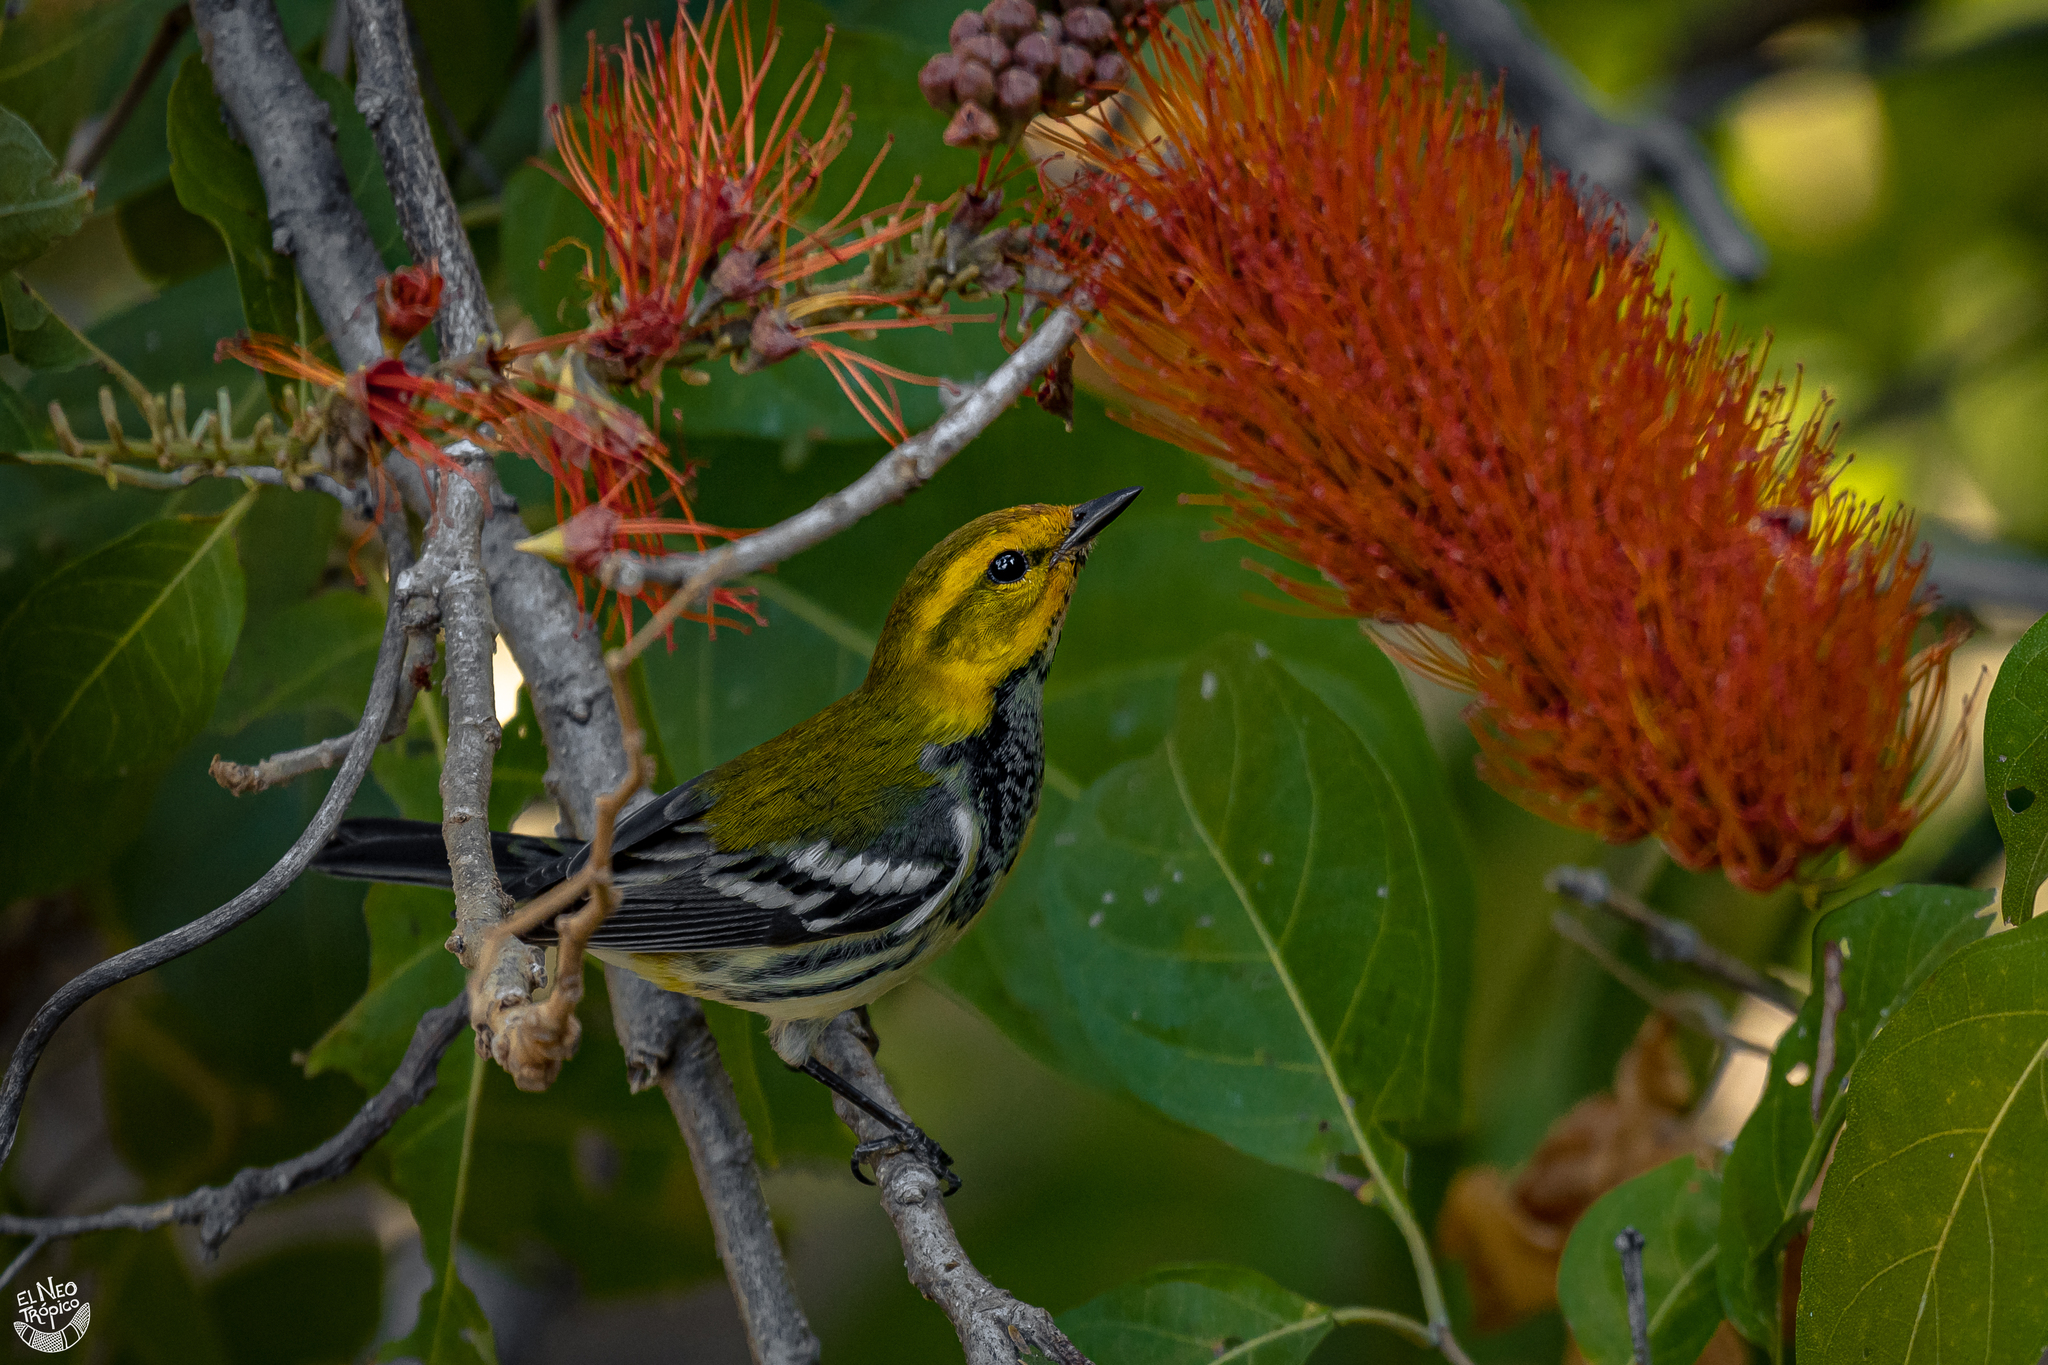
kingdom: Animalia
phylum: Chordata
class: Aves
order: Passeriformes
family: Parulidae
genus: Setophaga
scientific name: Setophaga virens
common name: Black-throated green warbler
